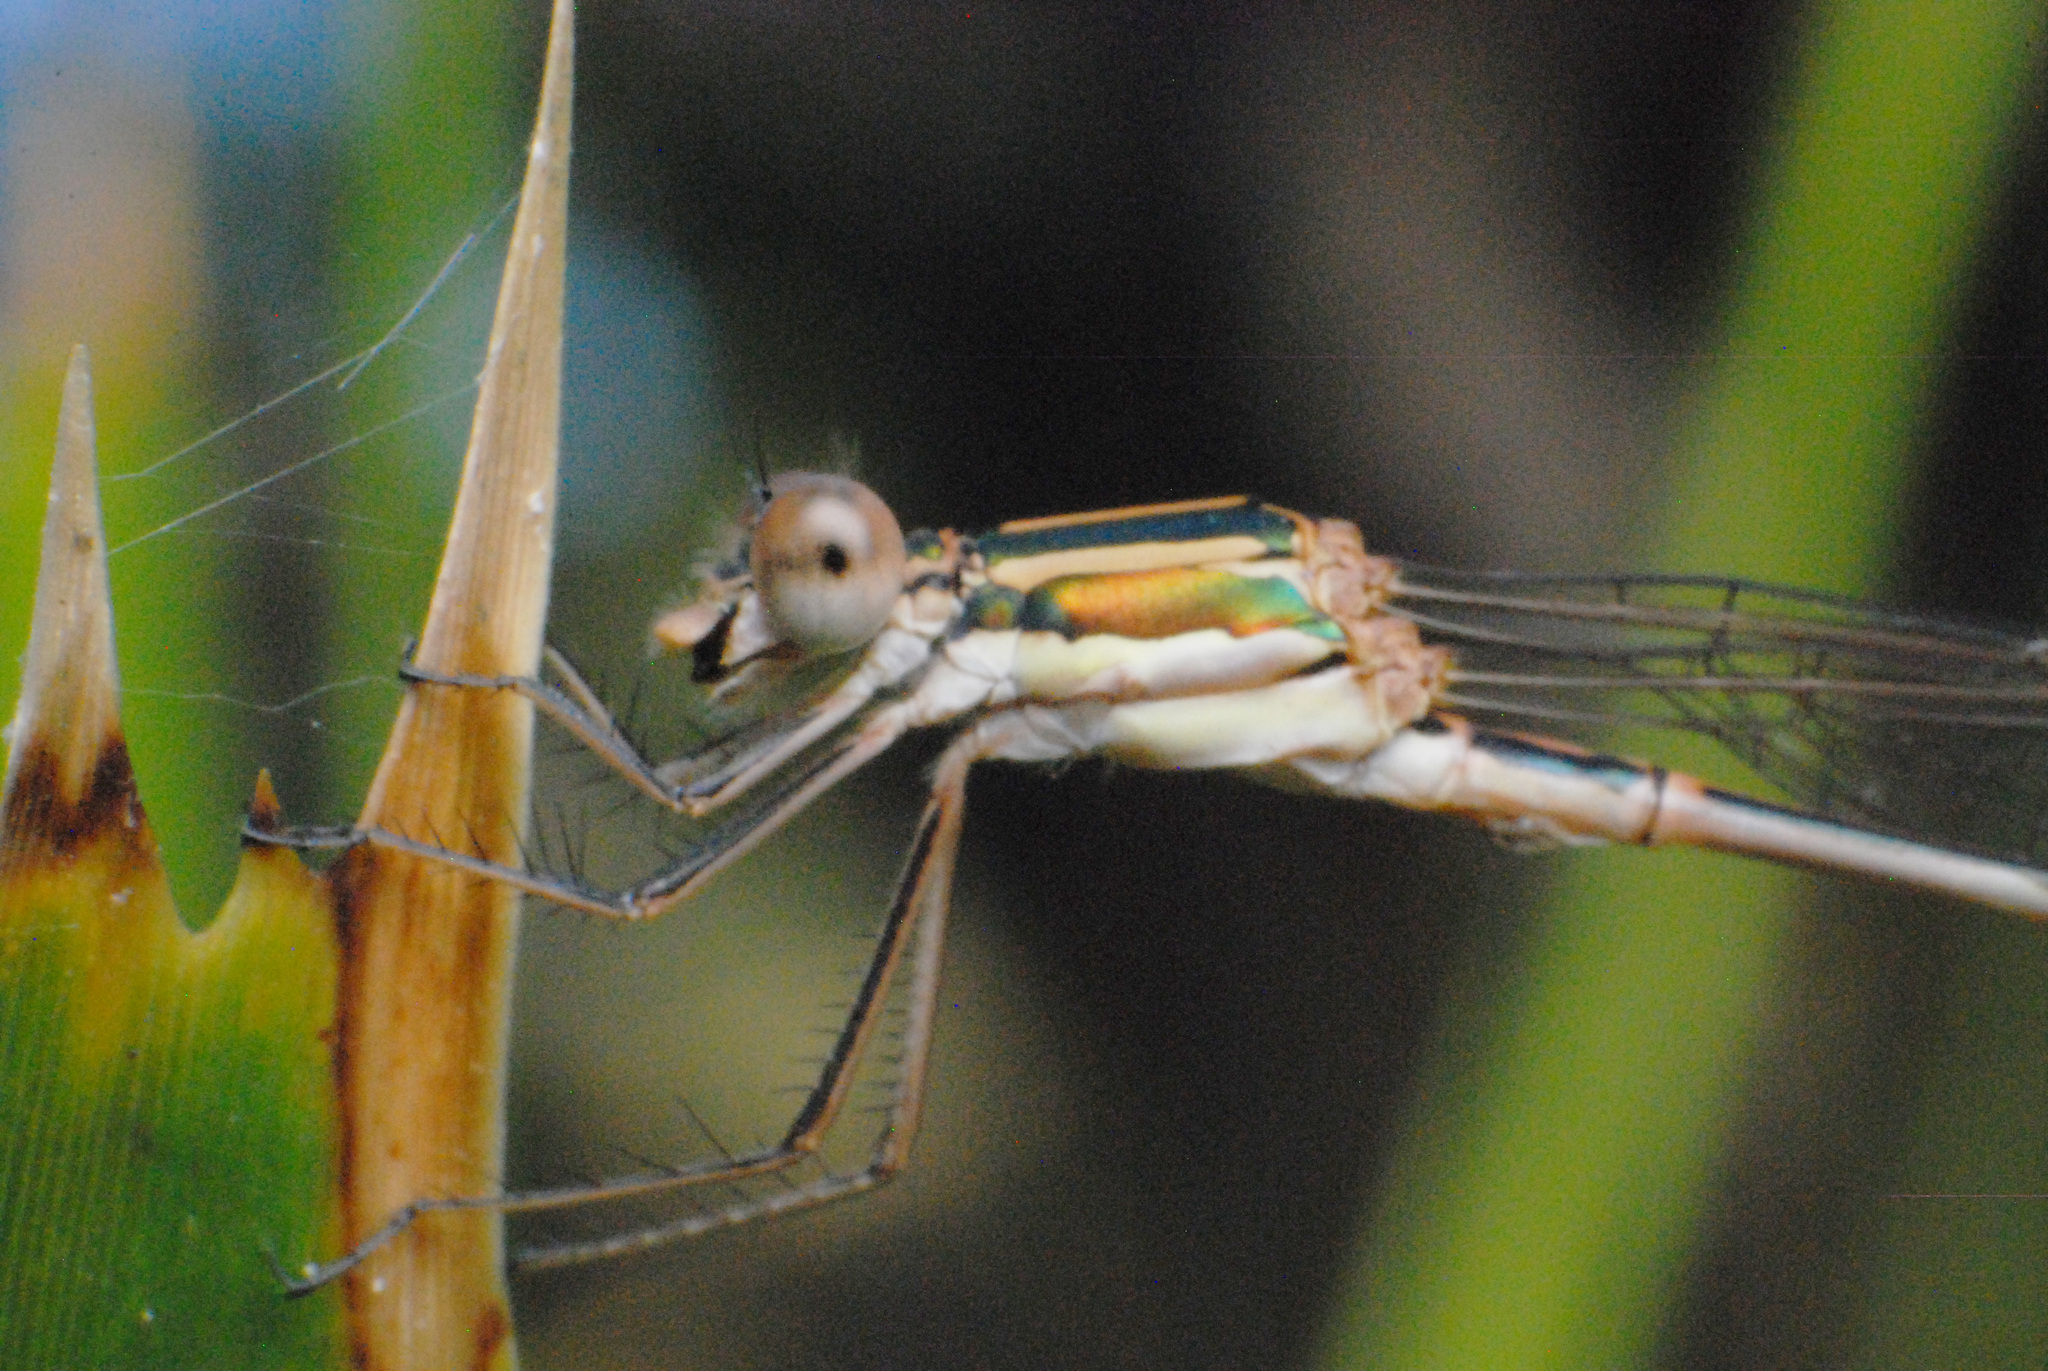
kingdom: Animalia
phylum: Arthropoda
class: Insecta
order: Odonata
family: Lestidae
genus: Austrolestes
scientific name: Austrolestes analis
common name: Slender ringtail
